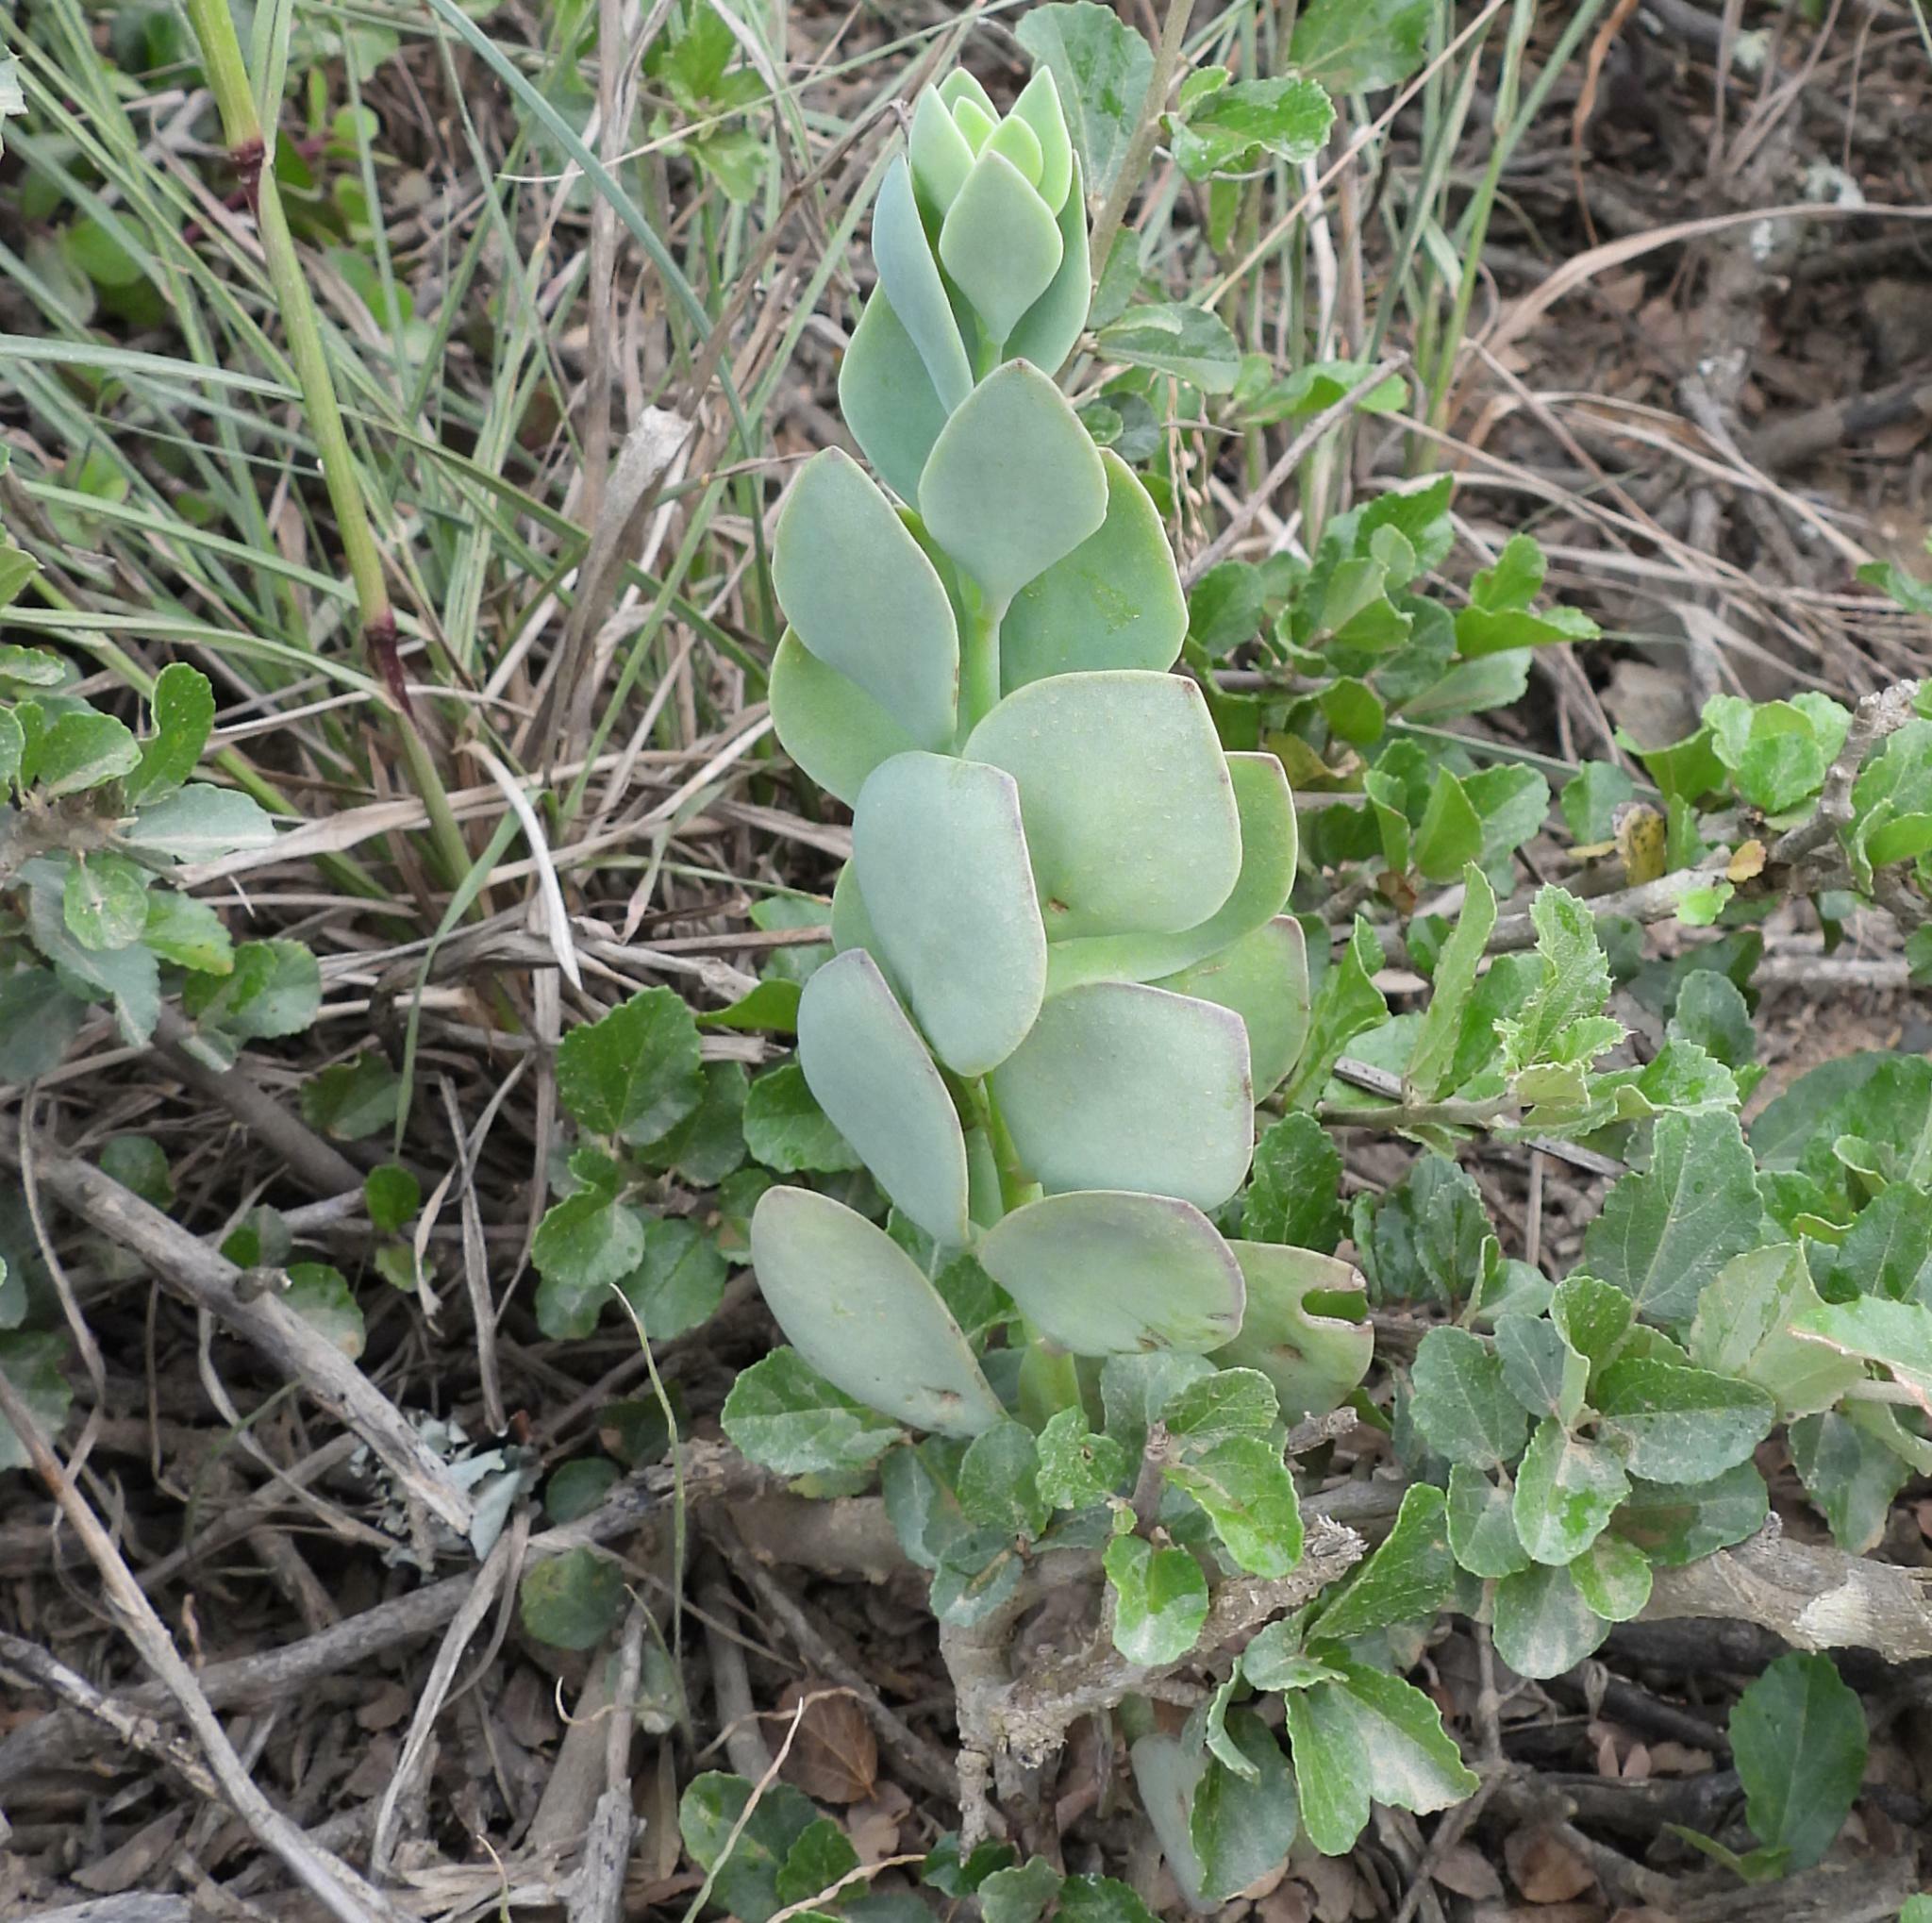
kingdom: Plantae
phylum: Tracheophyta
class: Magnoliopsida
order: Saxifragales
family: Crassulaceae
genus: Kalanchoe
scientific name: Kalanchoe rotundifolia
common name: Common kalanchoe
